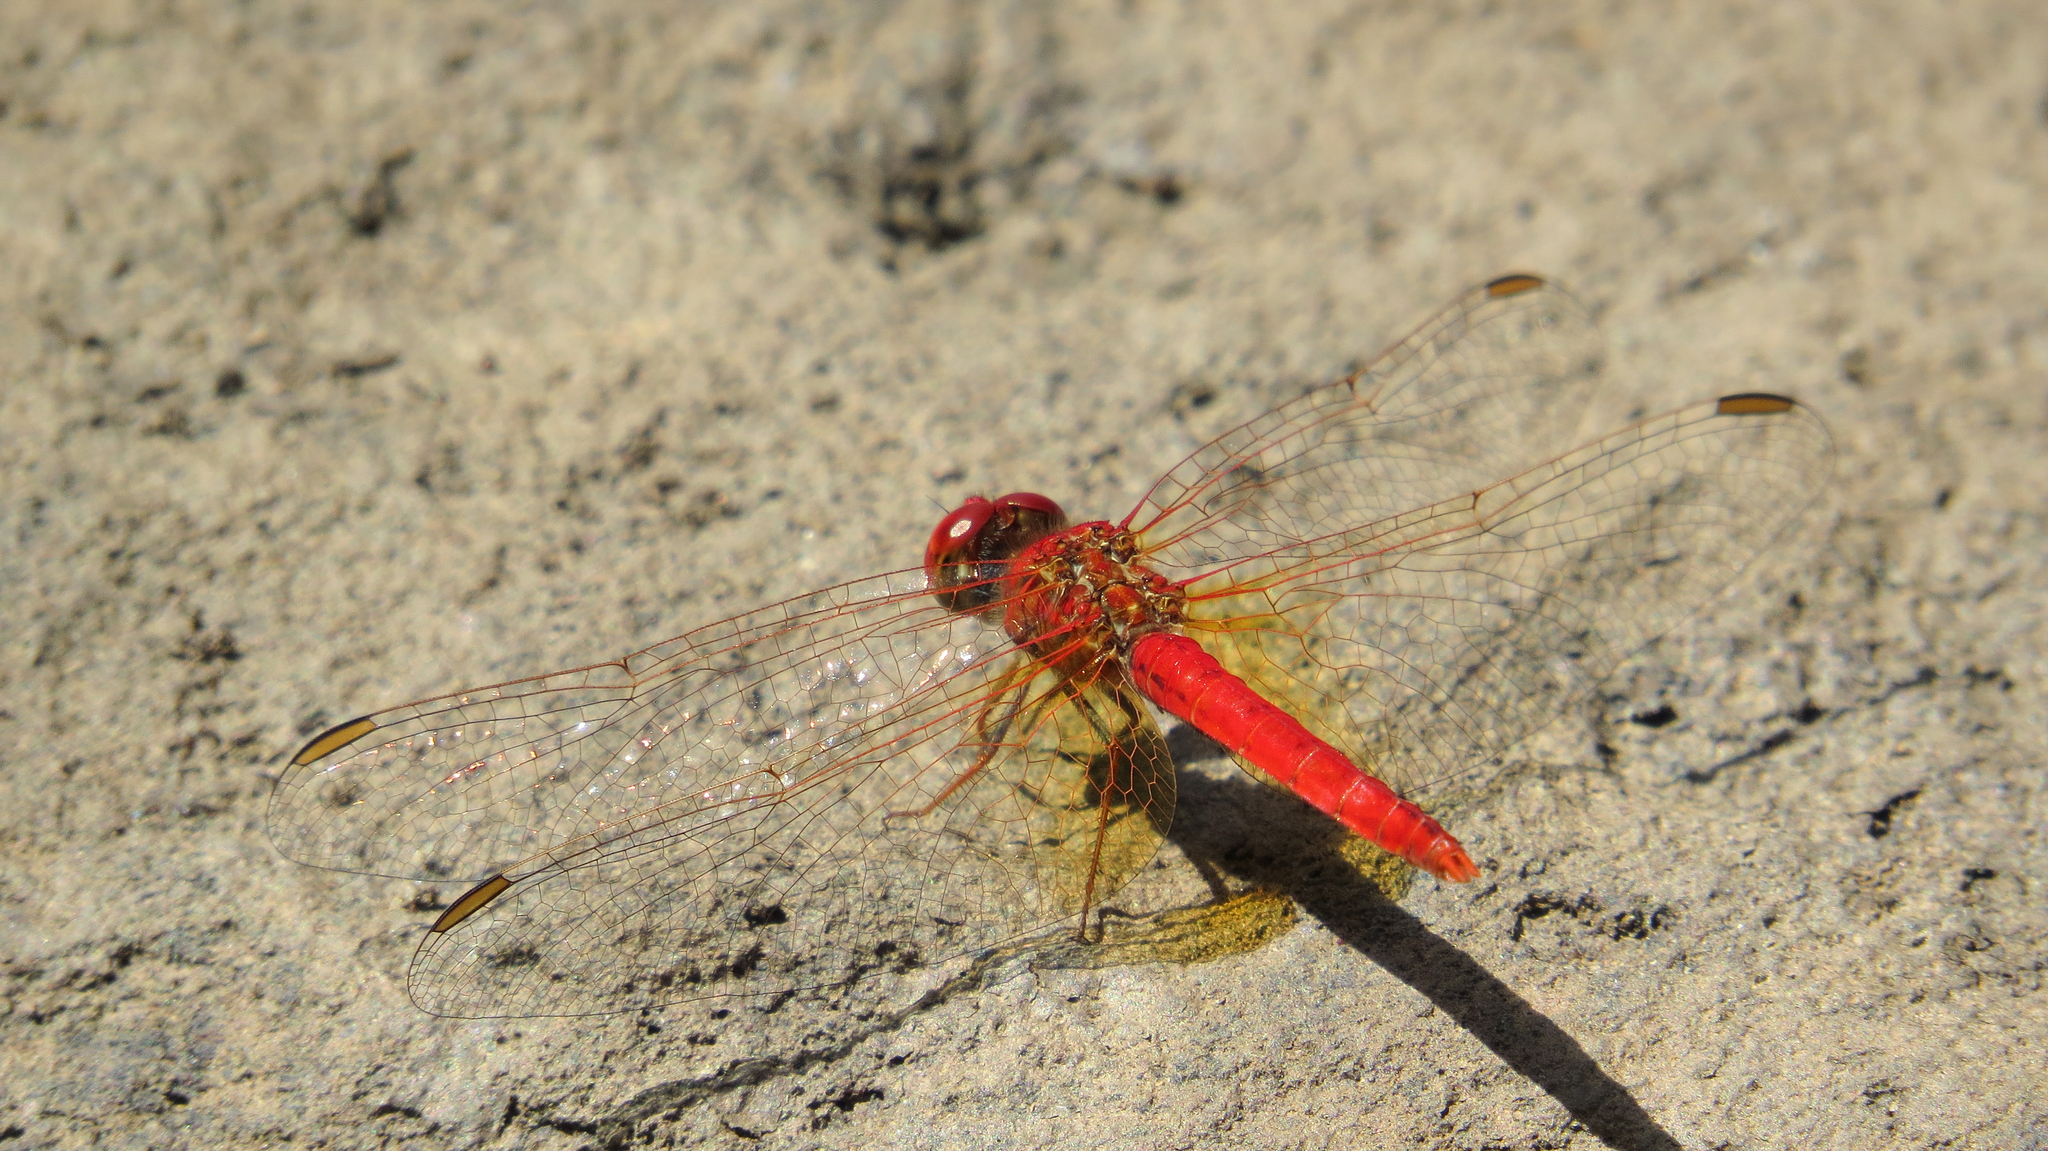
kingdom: Animalia
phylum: Arthropoda
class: Insecta
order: Odonata
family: Libellulidae
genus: Diplacodes
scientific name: Diplacodes haematodes
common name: Scarlet percher
